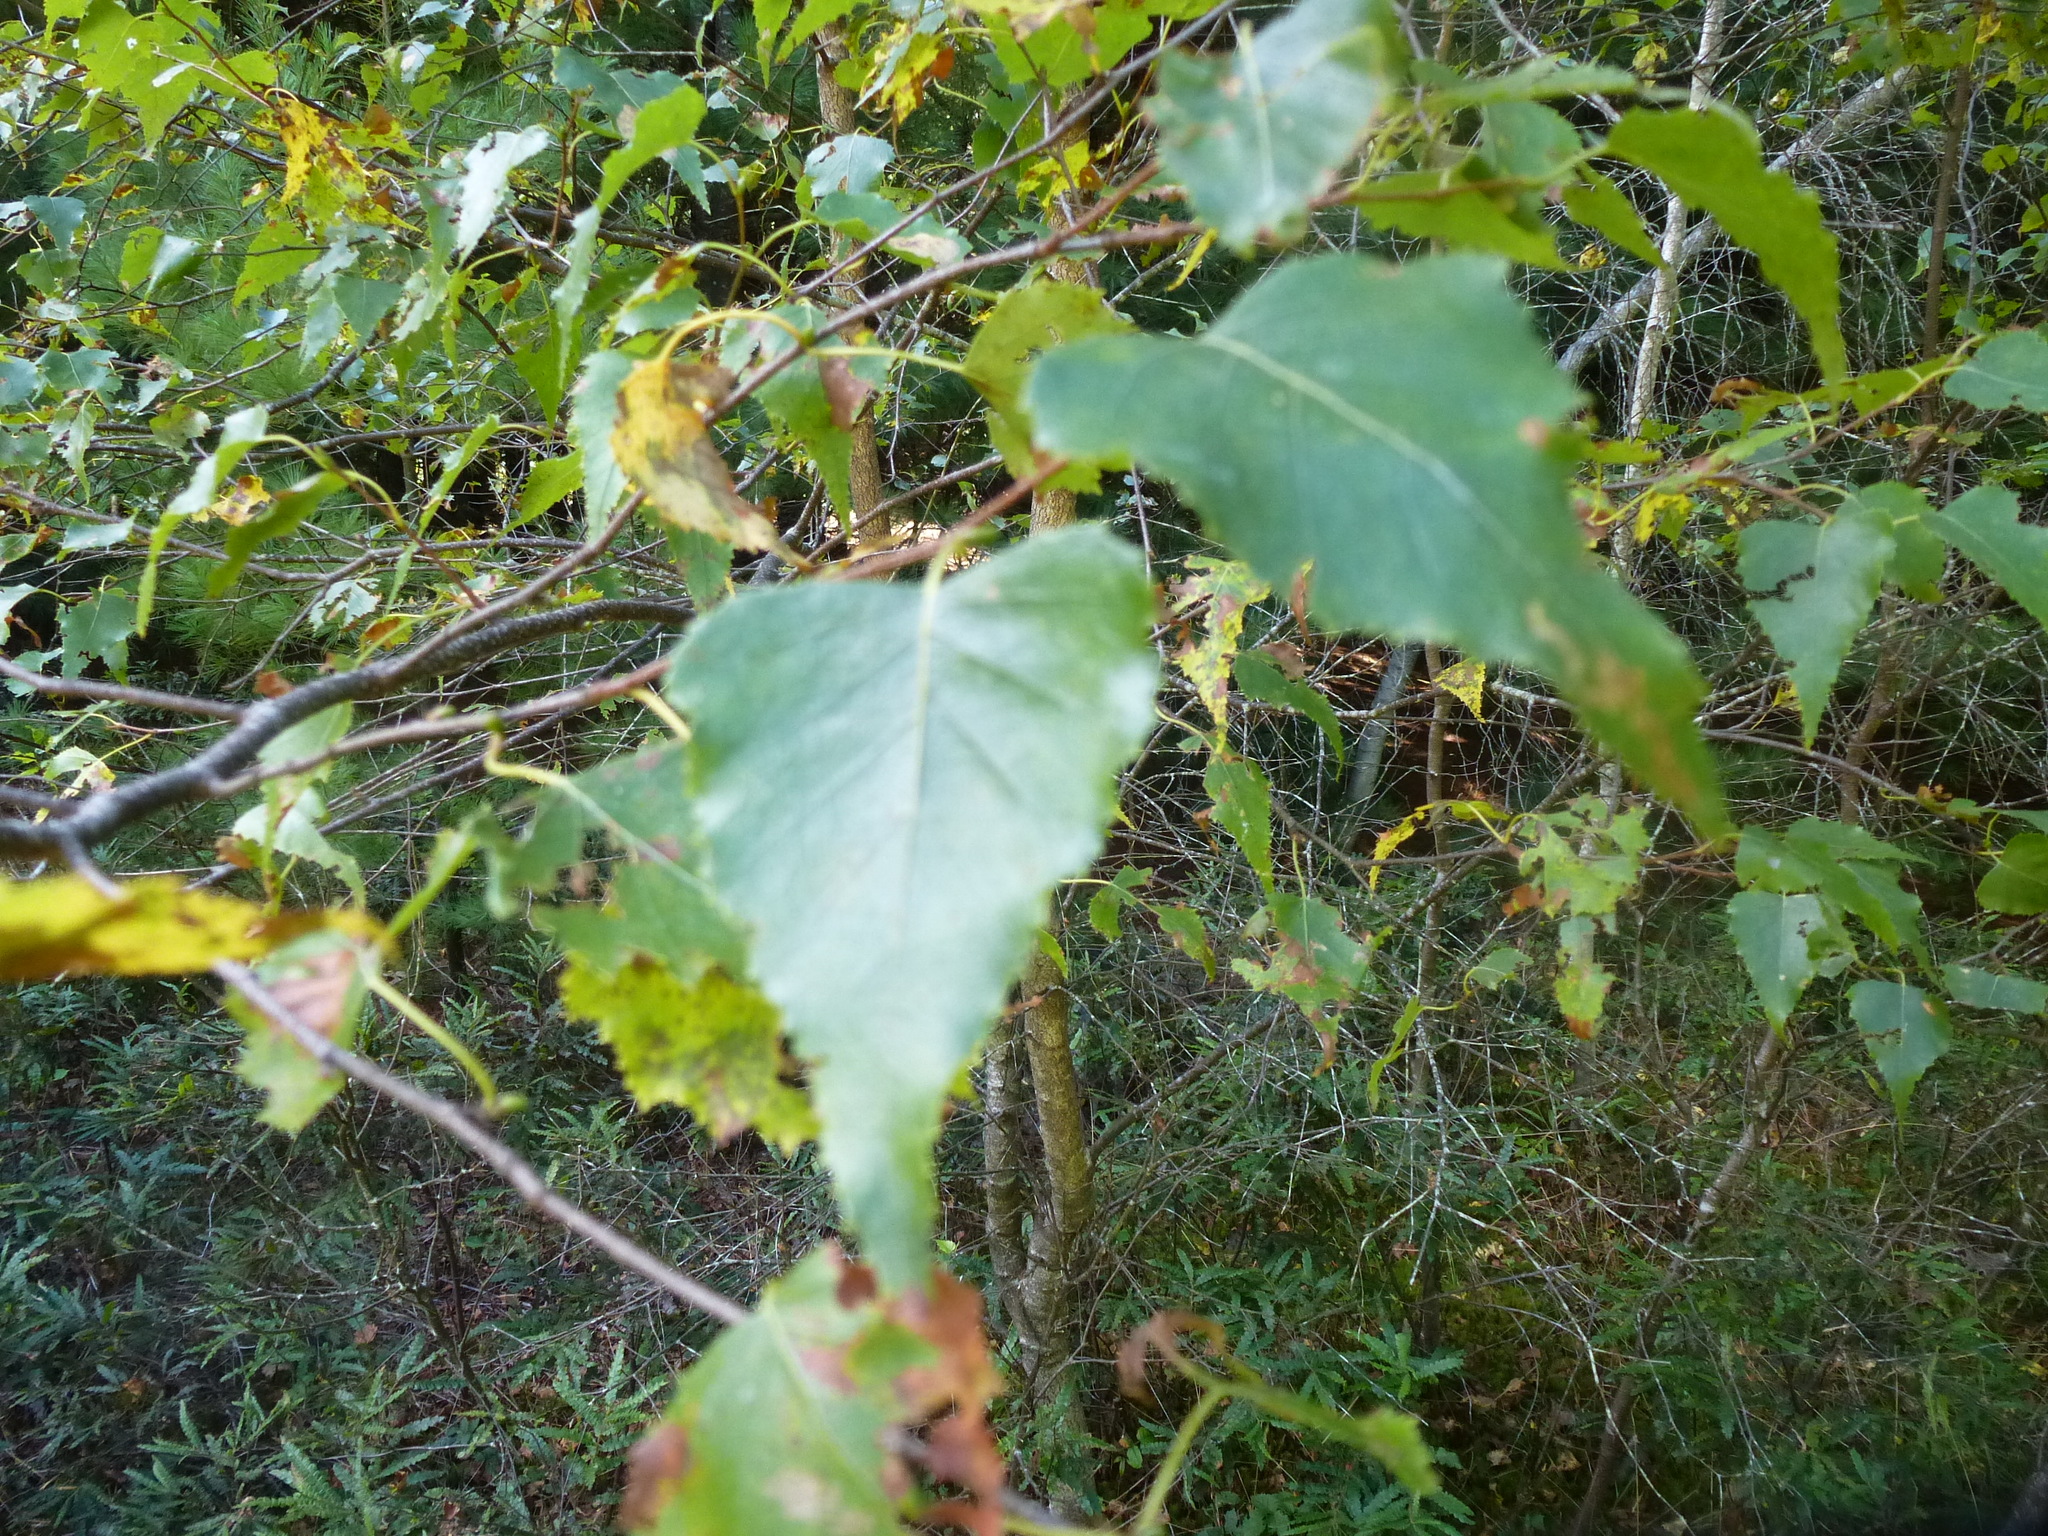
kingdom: Plantae
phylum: Tracheophyta
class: Magnoliopsida
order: Fagales
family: Betulaceae
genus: Betula
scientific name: Betula populifolia
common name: Fire birch
